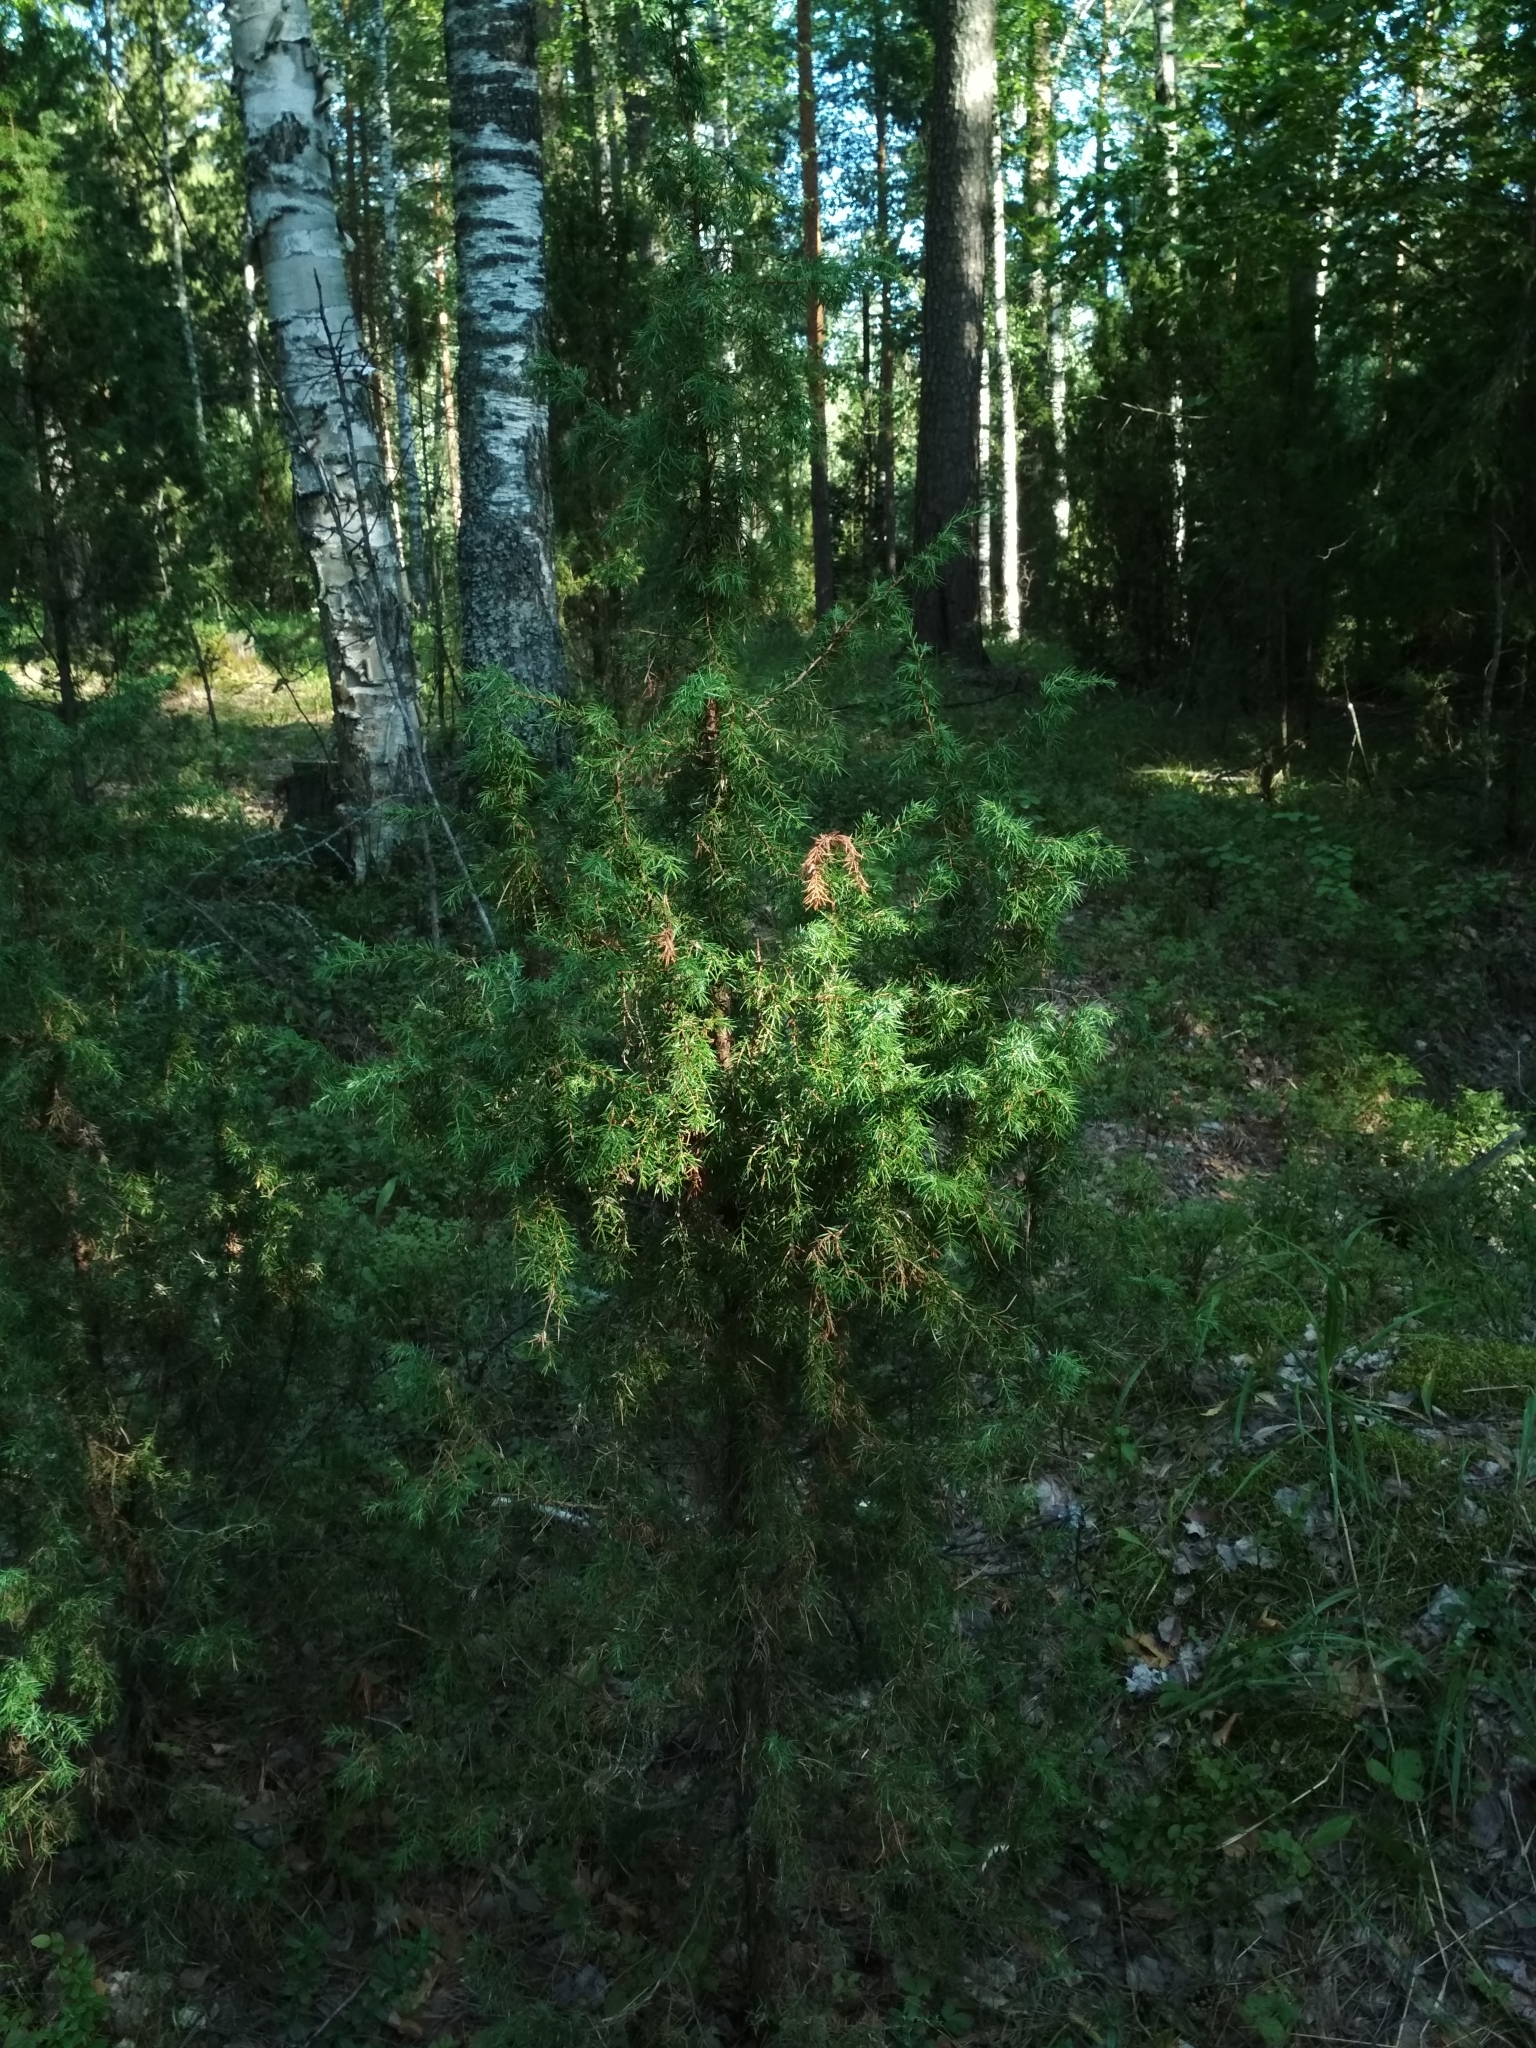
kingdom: Plantae
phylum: Tracheophyta
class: Pinopsida
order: Pinales
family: Cupressaceae
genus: Juniperus
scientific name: Juniperus communis
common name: Common juniper
